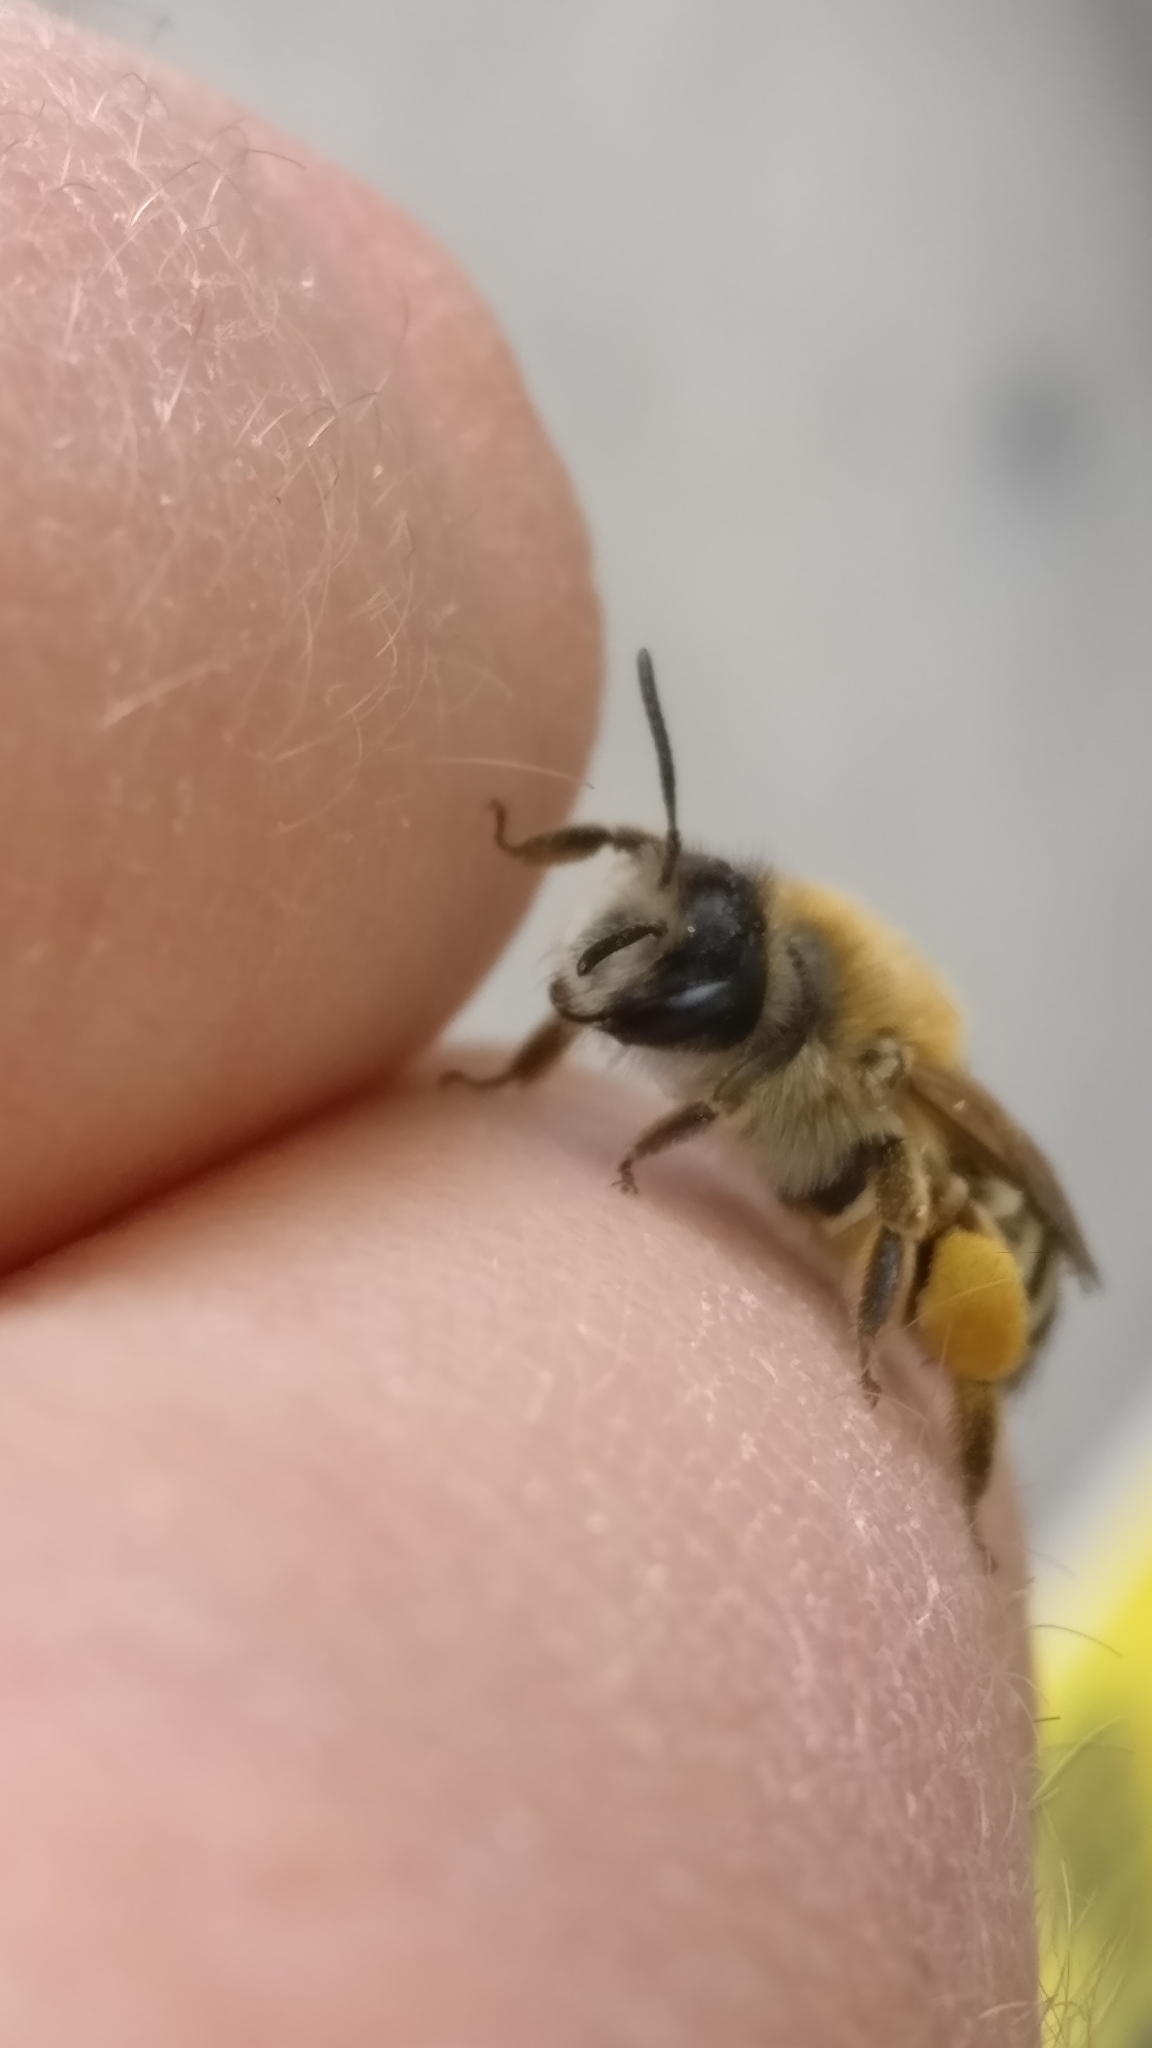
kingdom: Animalia
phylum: Arthropoda
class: Insecta
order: Hymenoptera
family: Andrenidae
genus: Andrena
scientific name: Andrena gravida
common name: White-bellied mining bee
